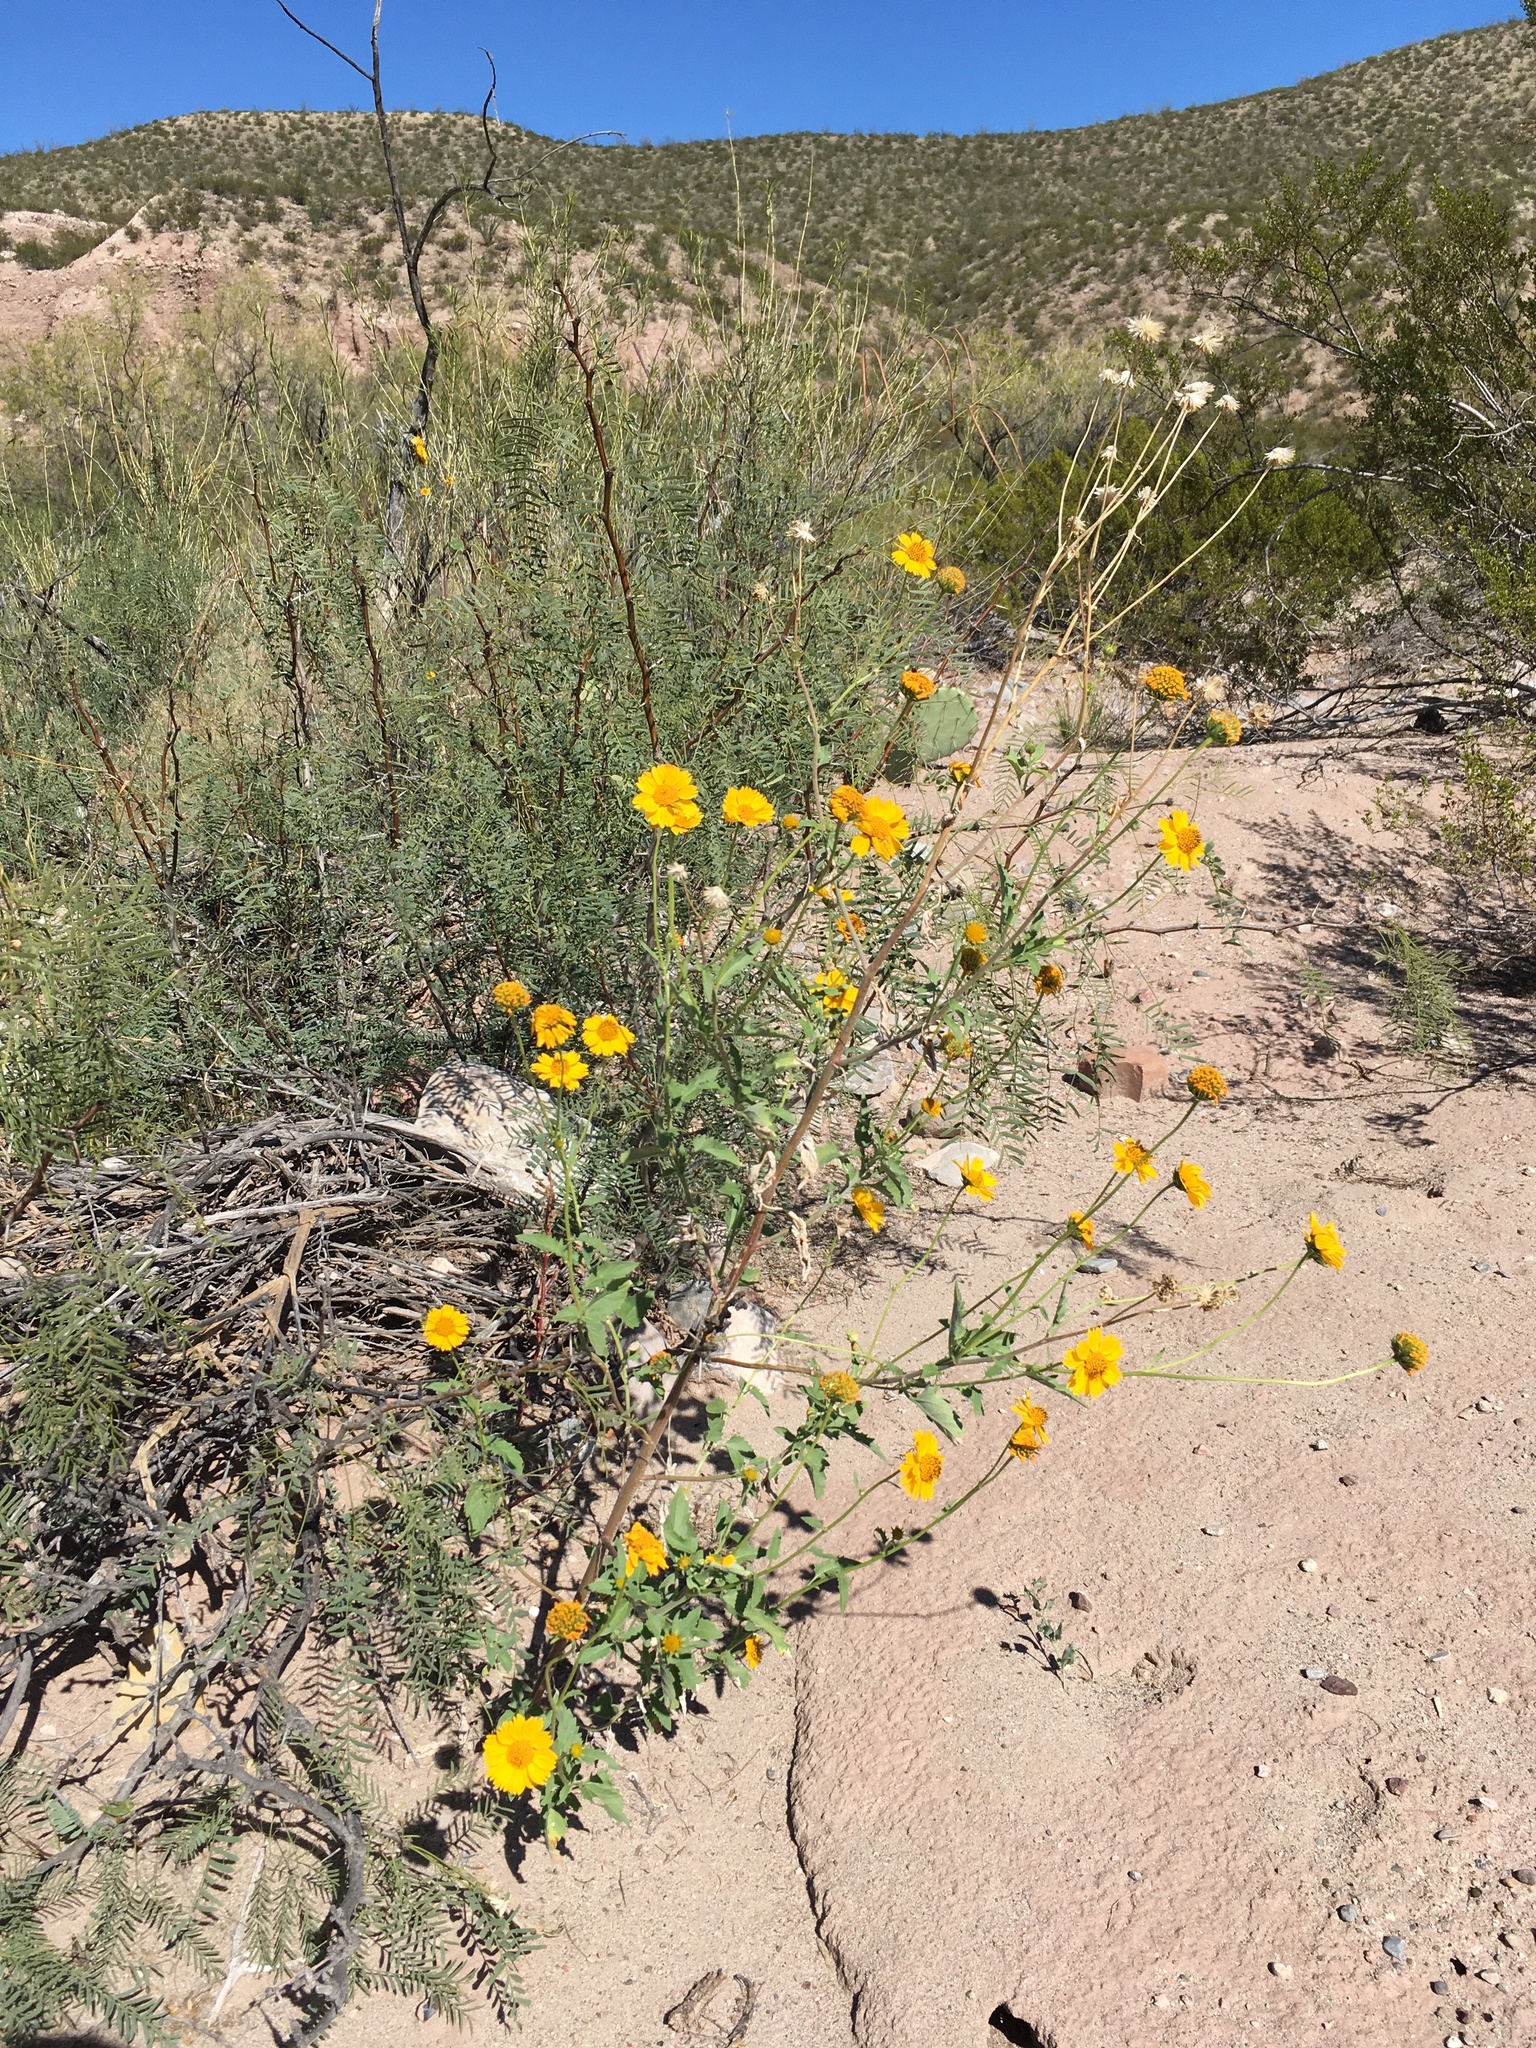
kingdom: Plantae
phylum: Tracheophyta
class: Magnoliopsida
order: Asterales
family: Asteraceae
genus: Verbesina
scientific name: Verbesina encelioides
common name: Golden crownbeard
